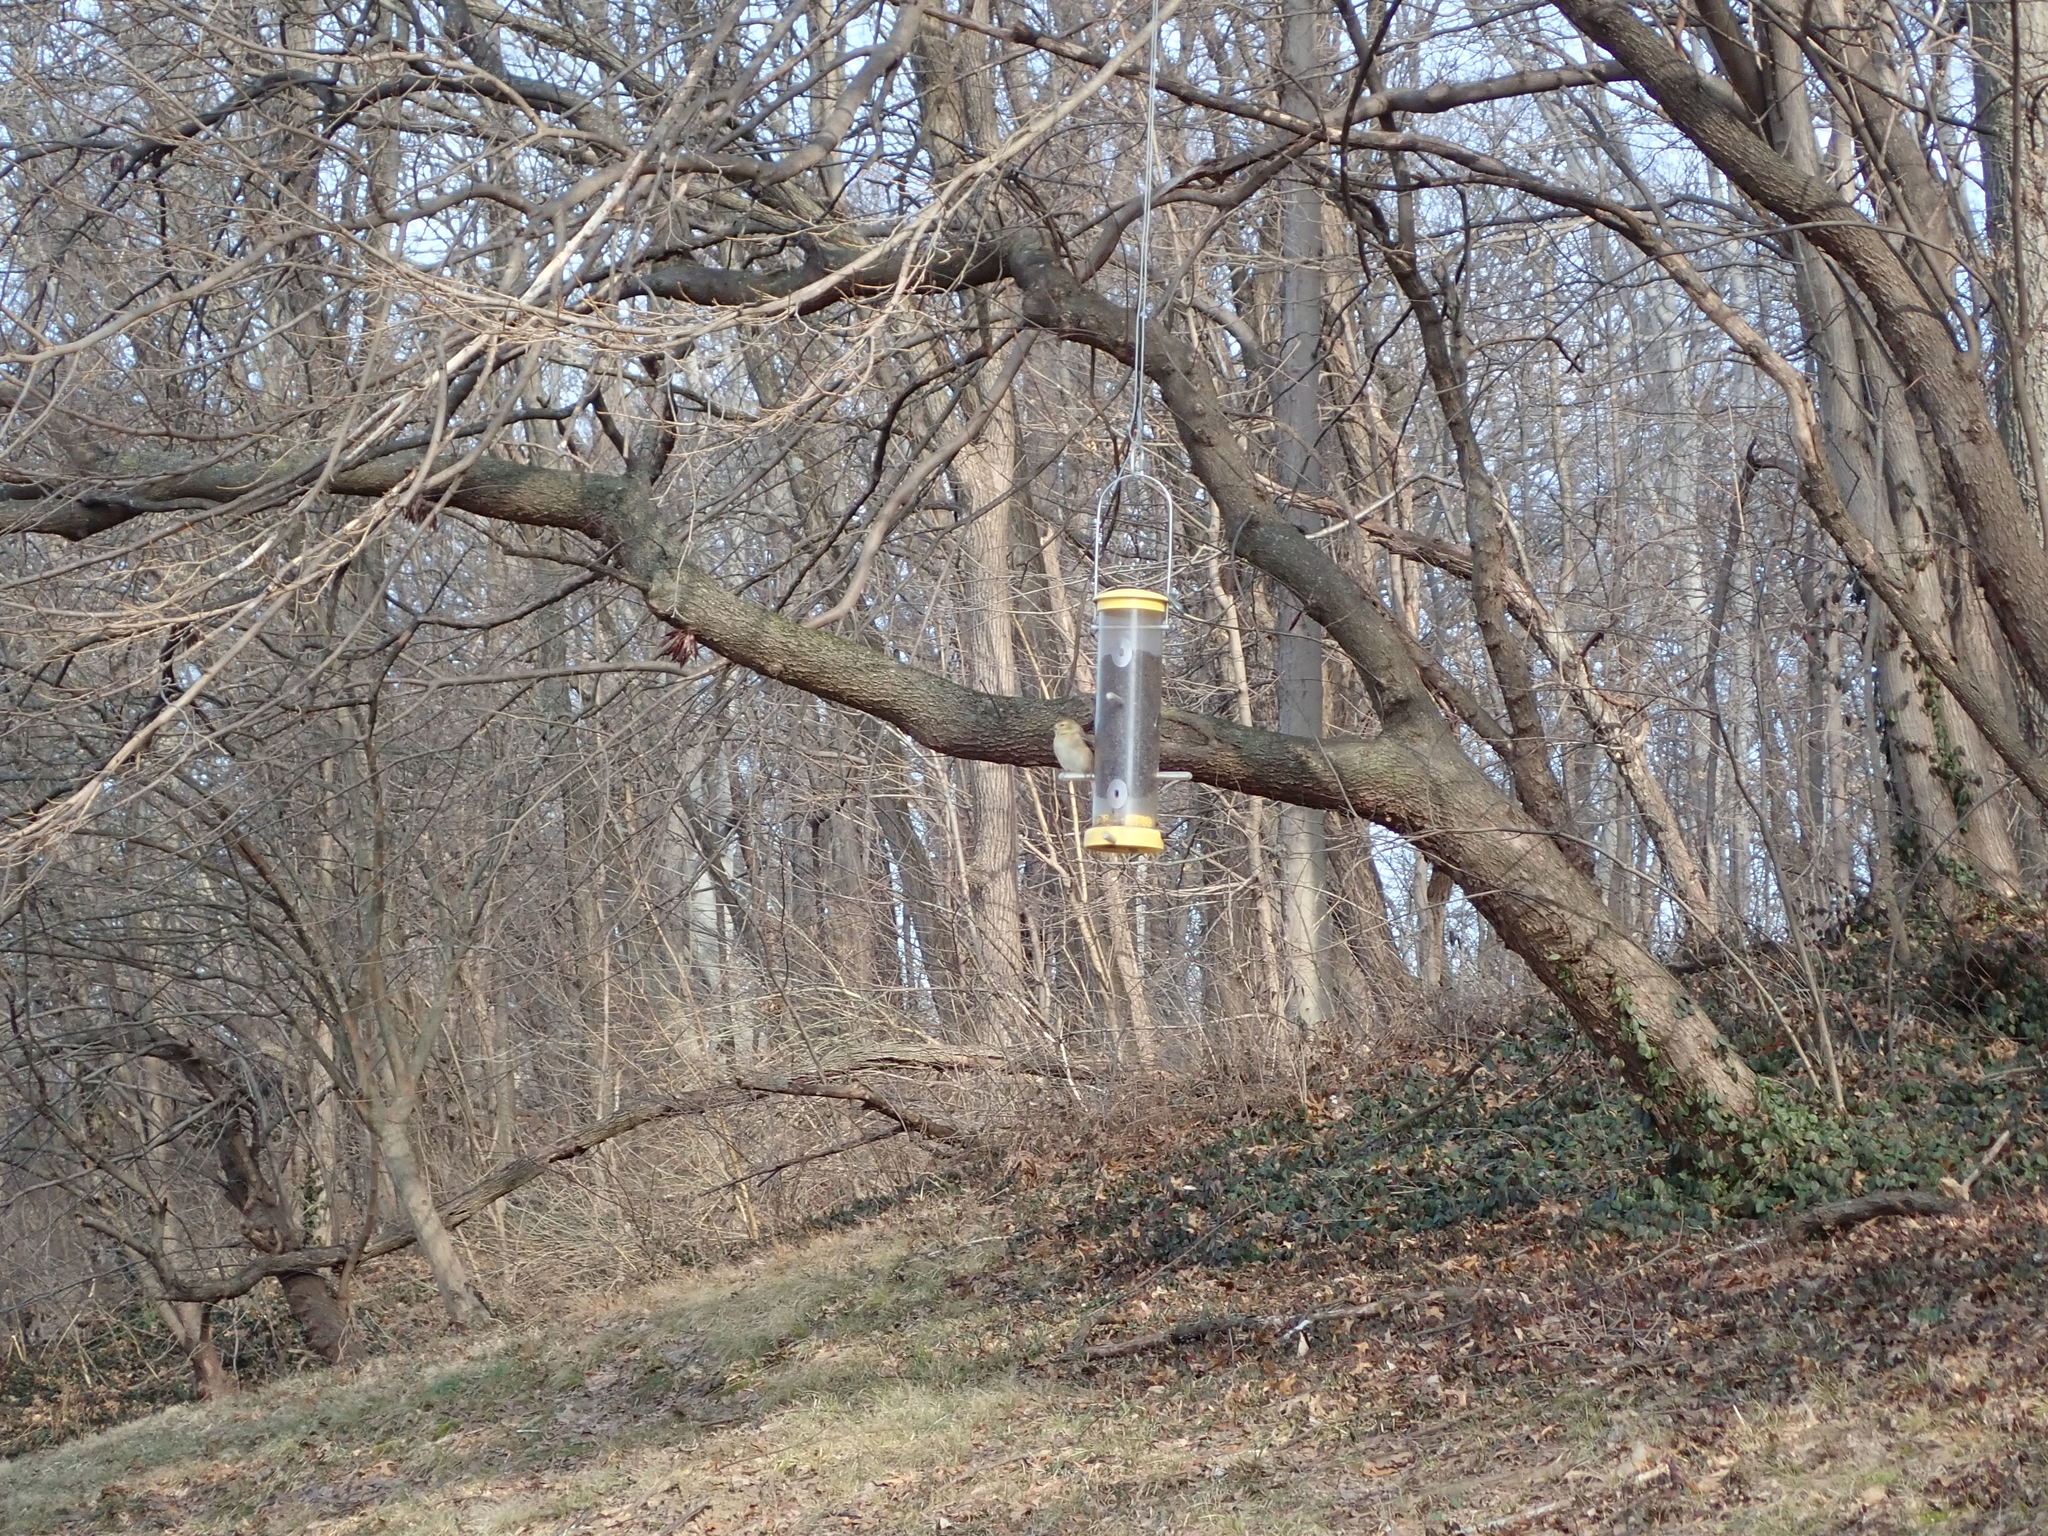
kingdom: Animalia
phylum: Chordata
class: Aves
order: Passeriformes
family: Fringillidae
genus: Spinus
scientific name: Spinus tristis
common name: American goldfinch
